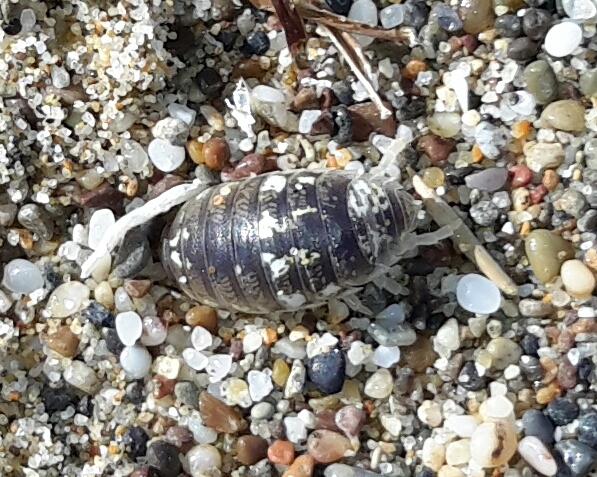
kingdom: Animalia
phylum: Arthropoda
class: Malacostraca
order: Isopoda
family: Alloniscidae
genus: Alloniscus
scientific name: Alloniscus perconvexus
